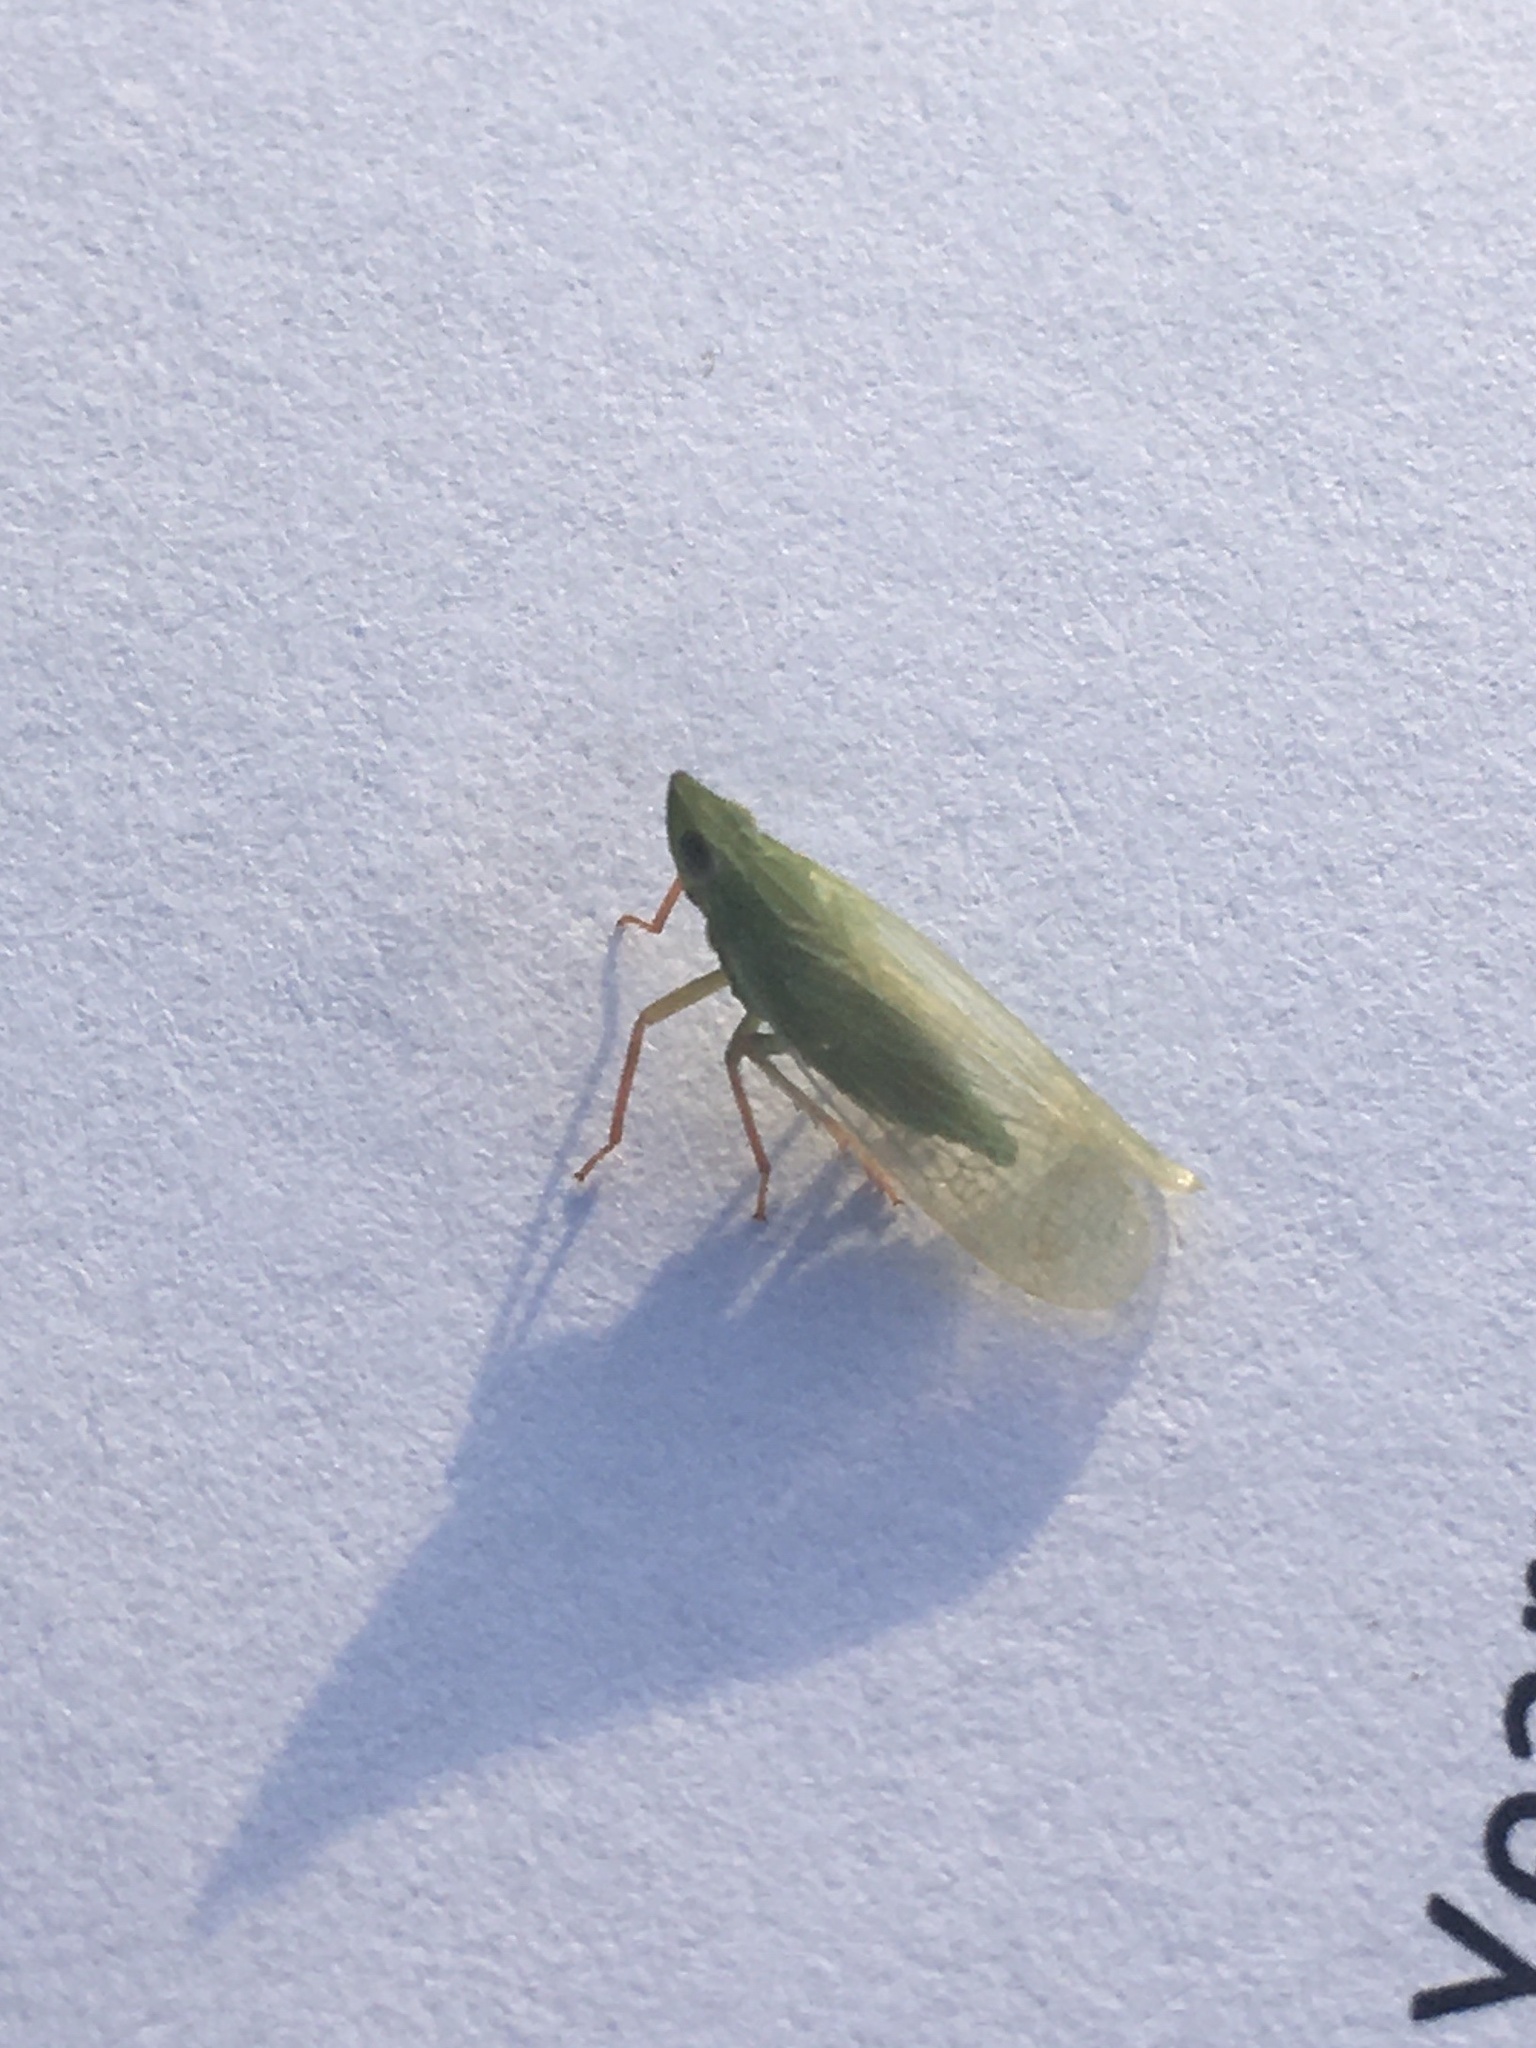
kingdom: Animalia
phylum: Arthropoda
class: Insecta
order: Hemiptera
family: Dictyopharidae
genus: Rhynchomitra
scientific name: Rhynchomitra lingula
